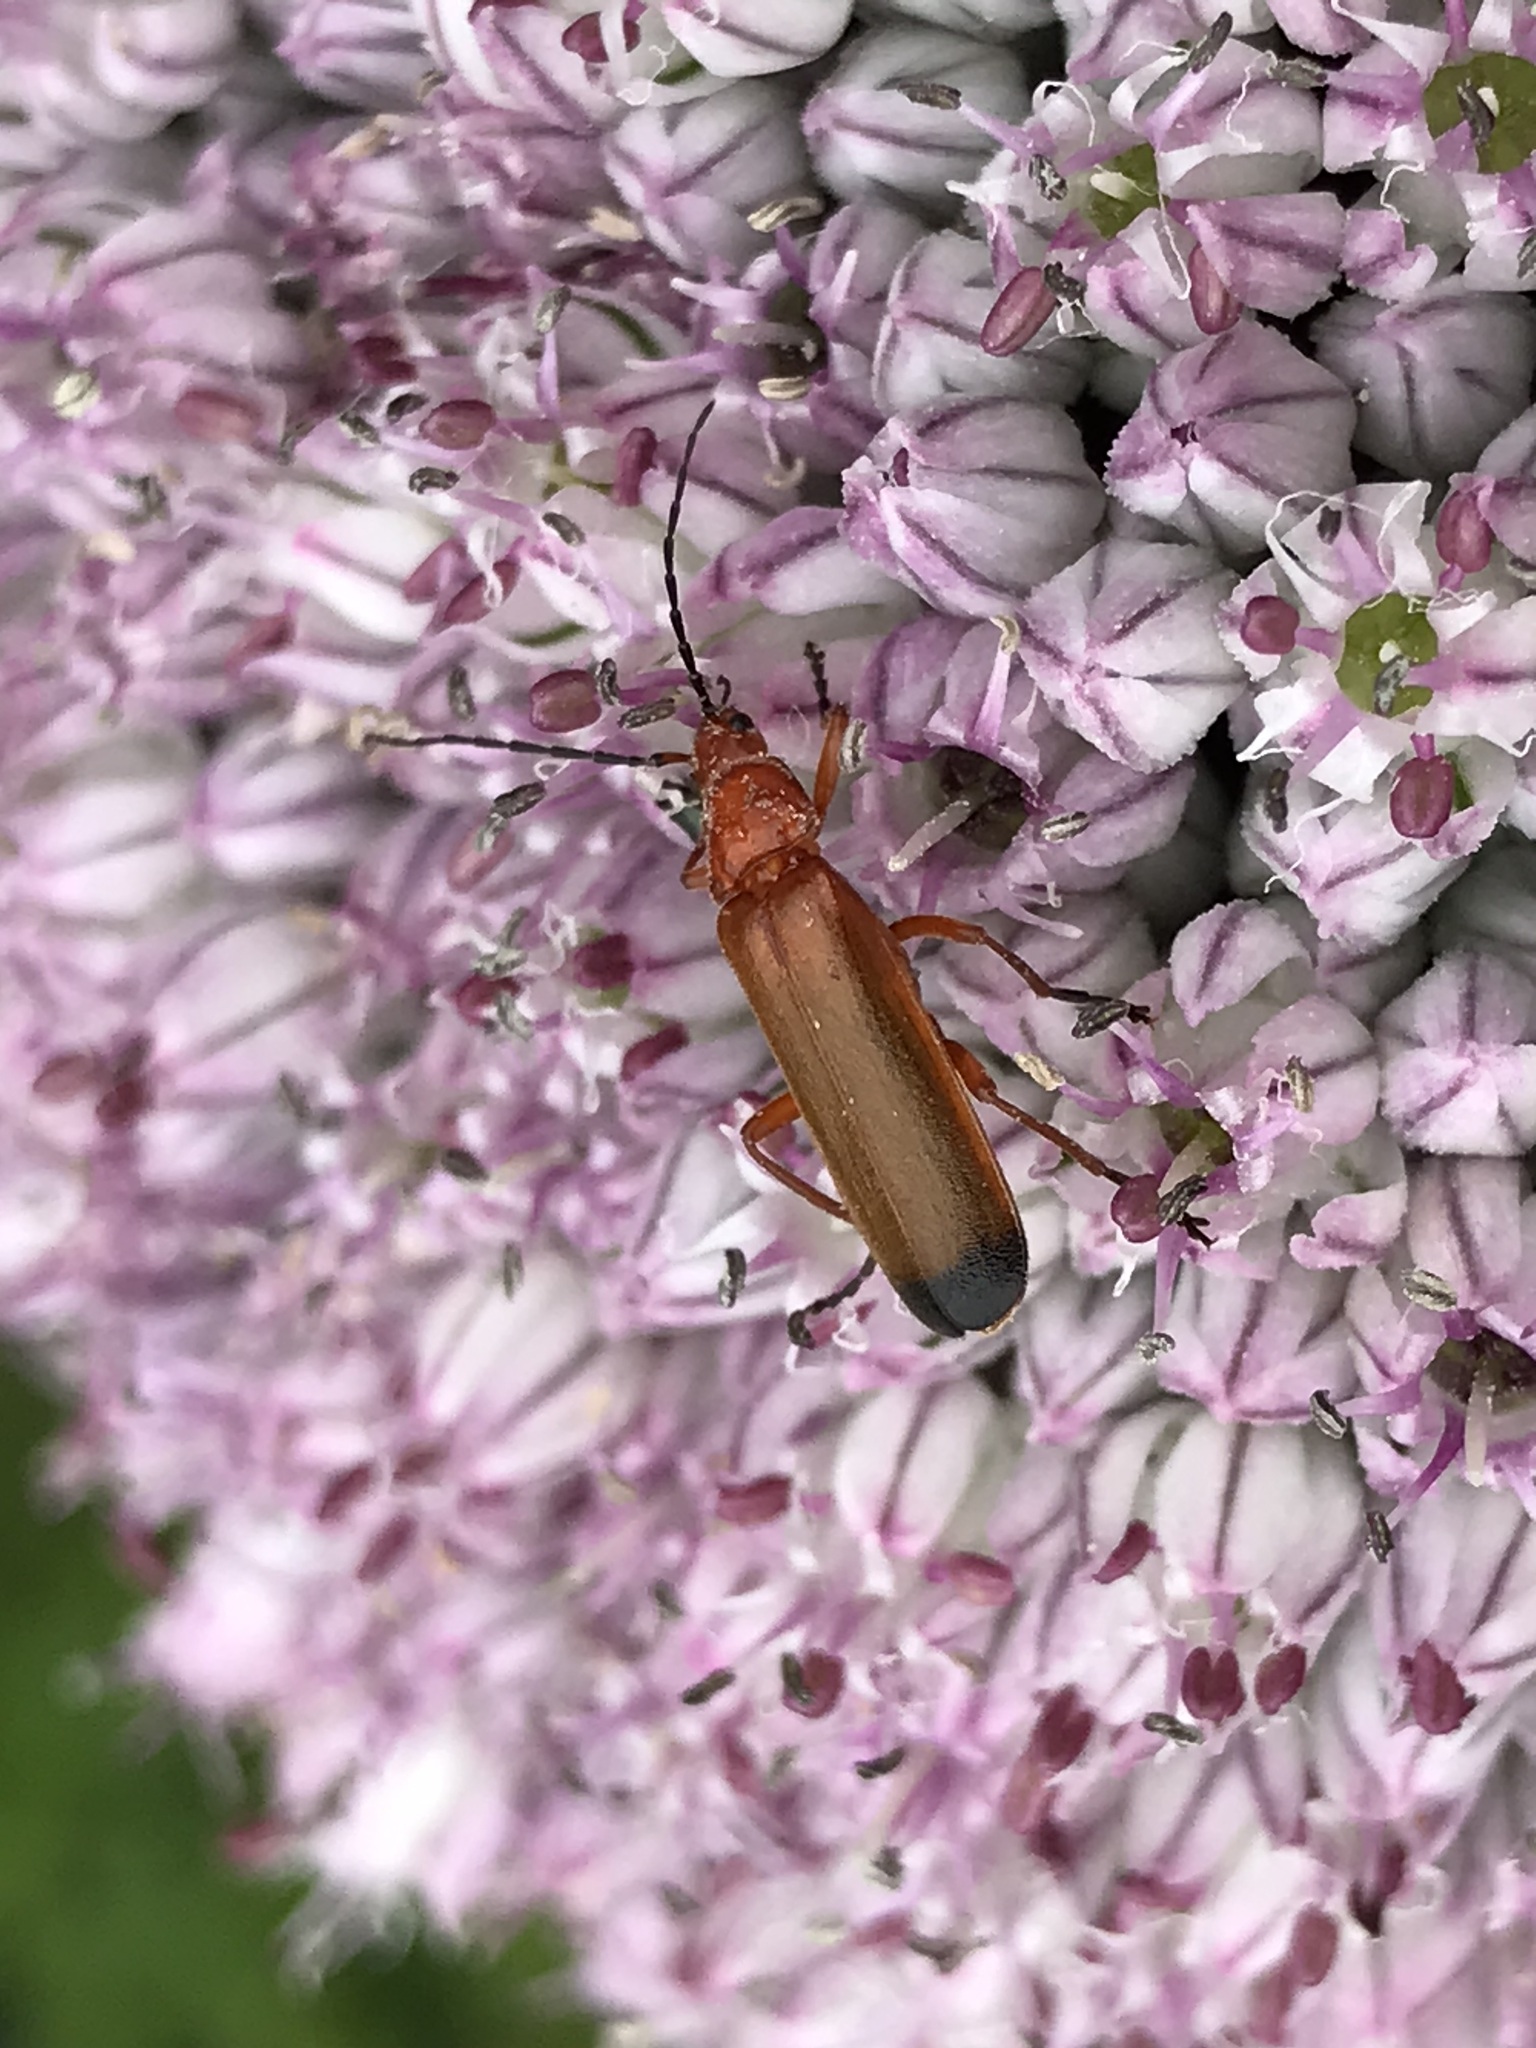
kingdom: Animalia
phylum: Arthropoda
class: Insecta
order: Coleoptera
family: Cantharidae
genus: Rhagonycha
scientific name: Rhagonycha fulva
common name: Common red soldier beetle
